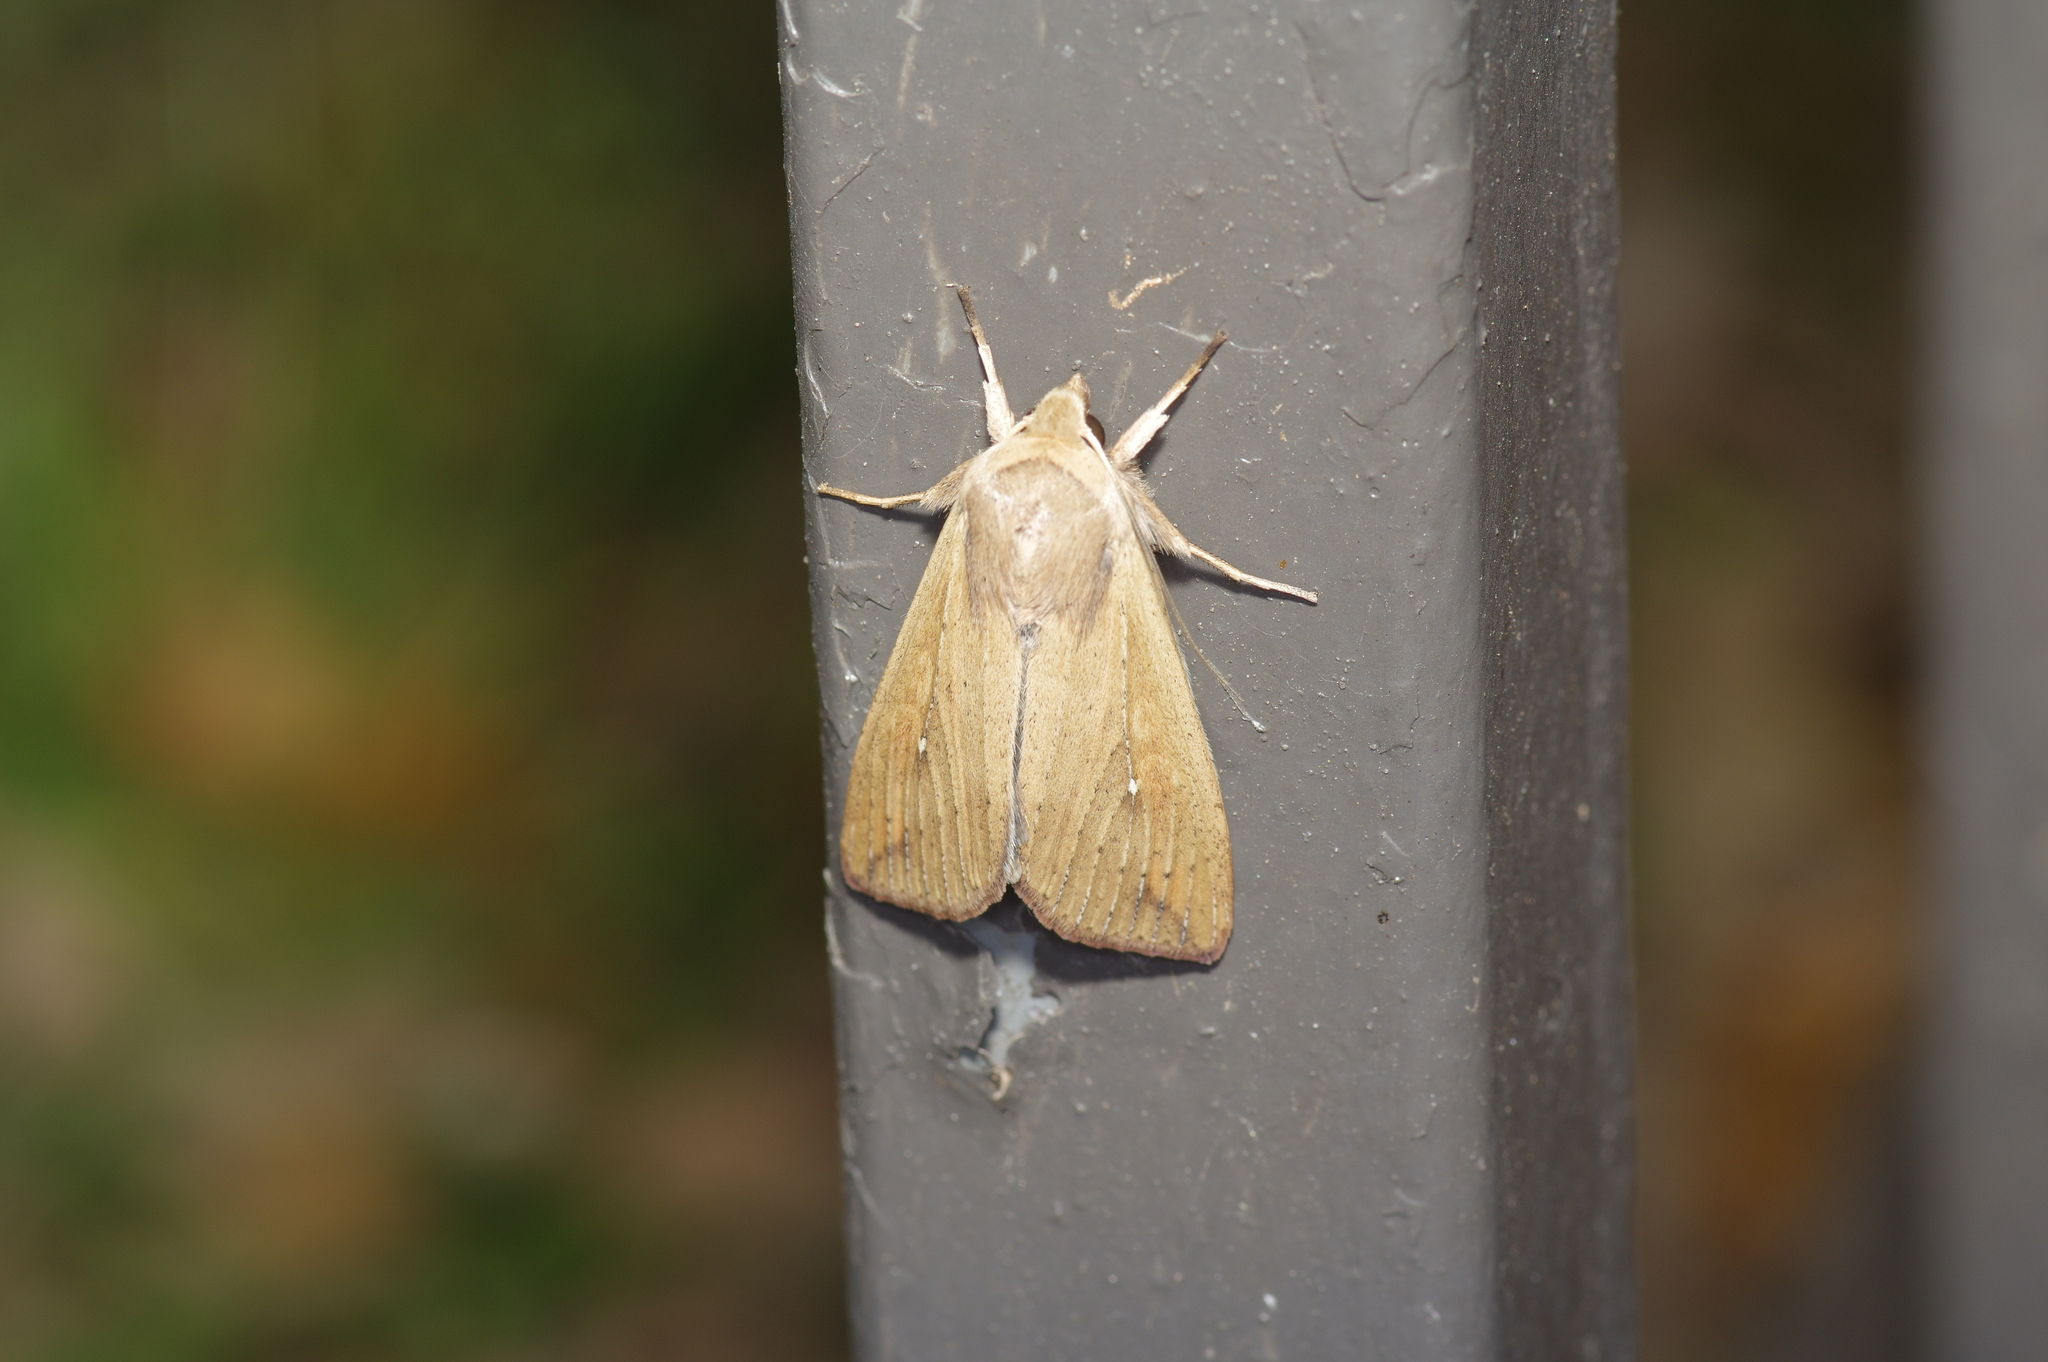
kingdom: Animalia
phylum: Arthropoda
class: Insecta
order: Lepidoptera
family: Noctuidae
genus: Mythimna
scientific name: Mythimna unipuncta
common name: White-speck
